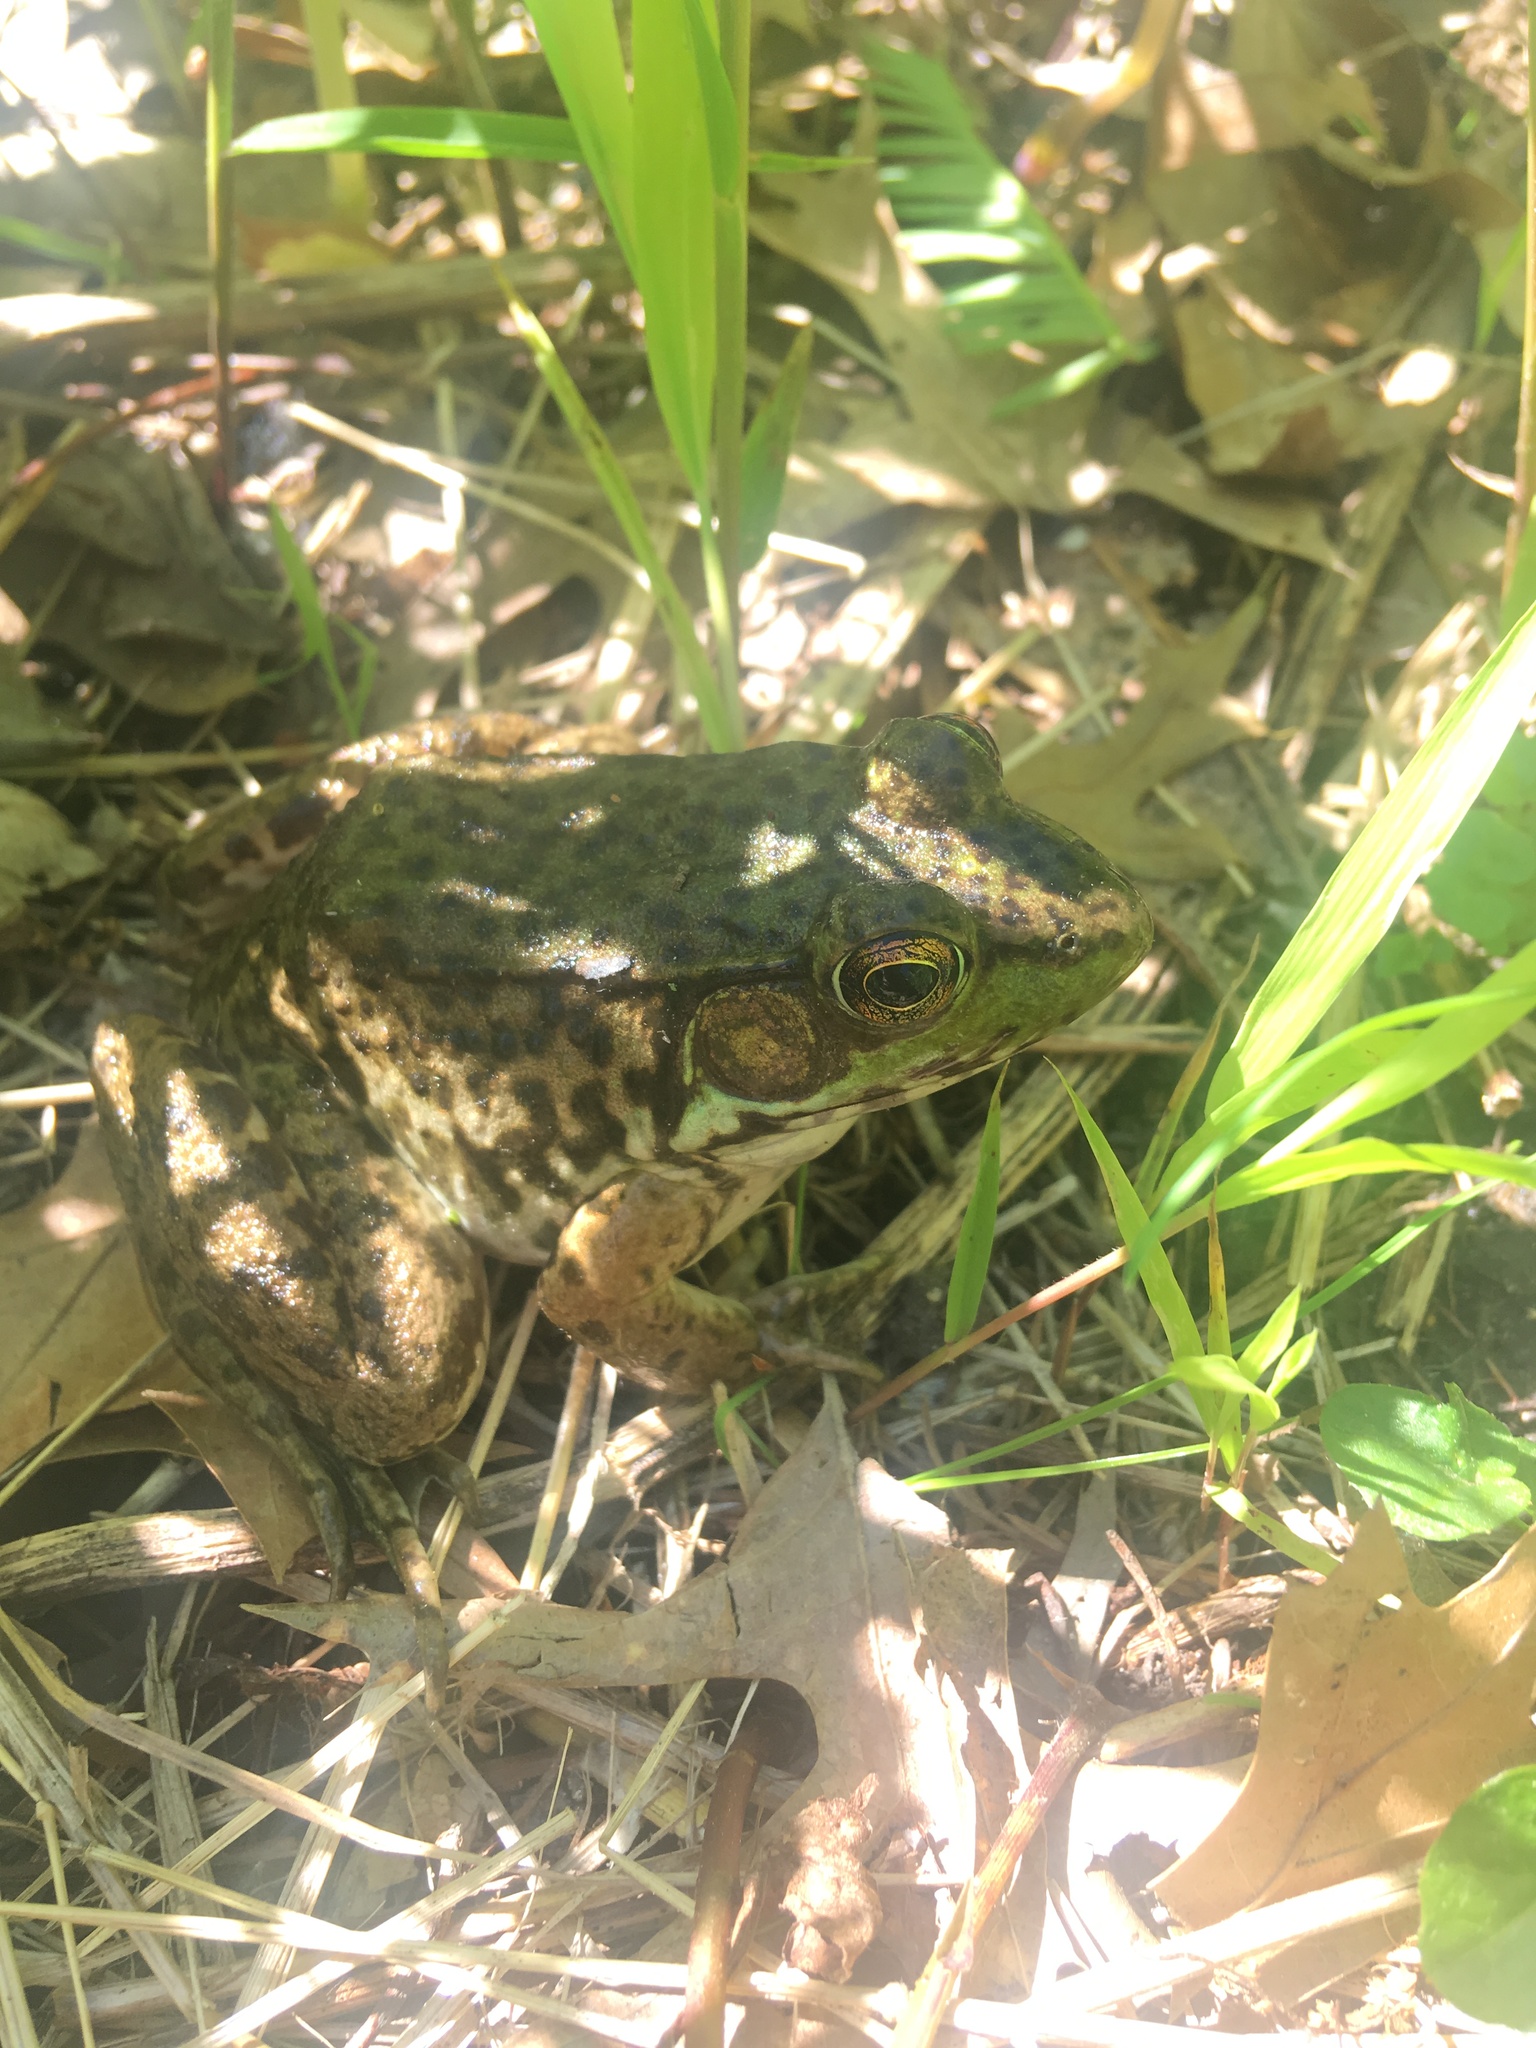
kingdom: Animalia
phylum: Chordata
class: Amphibia
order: Anura
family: Ranidae
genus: Lithobates
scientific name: Lithobates clamitans
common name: Green frog
